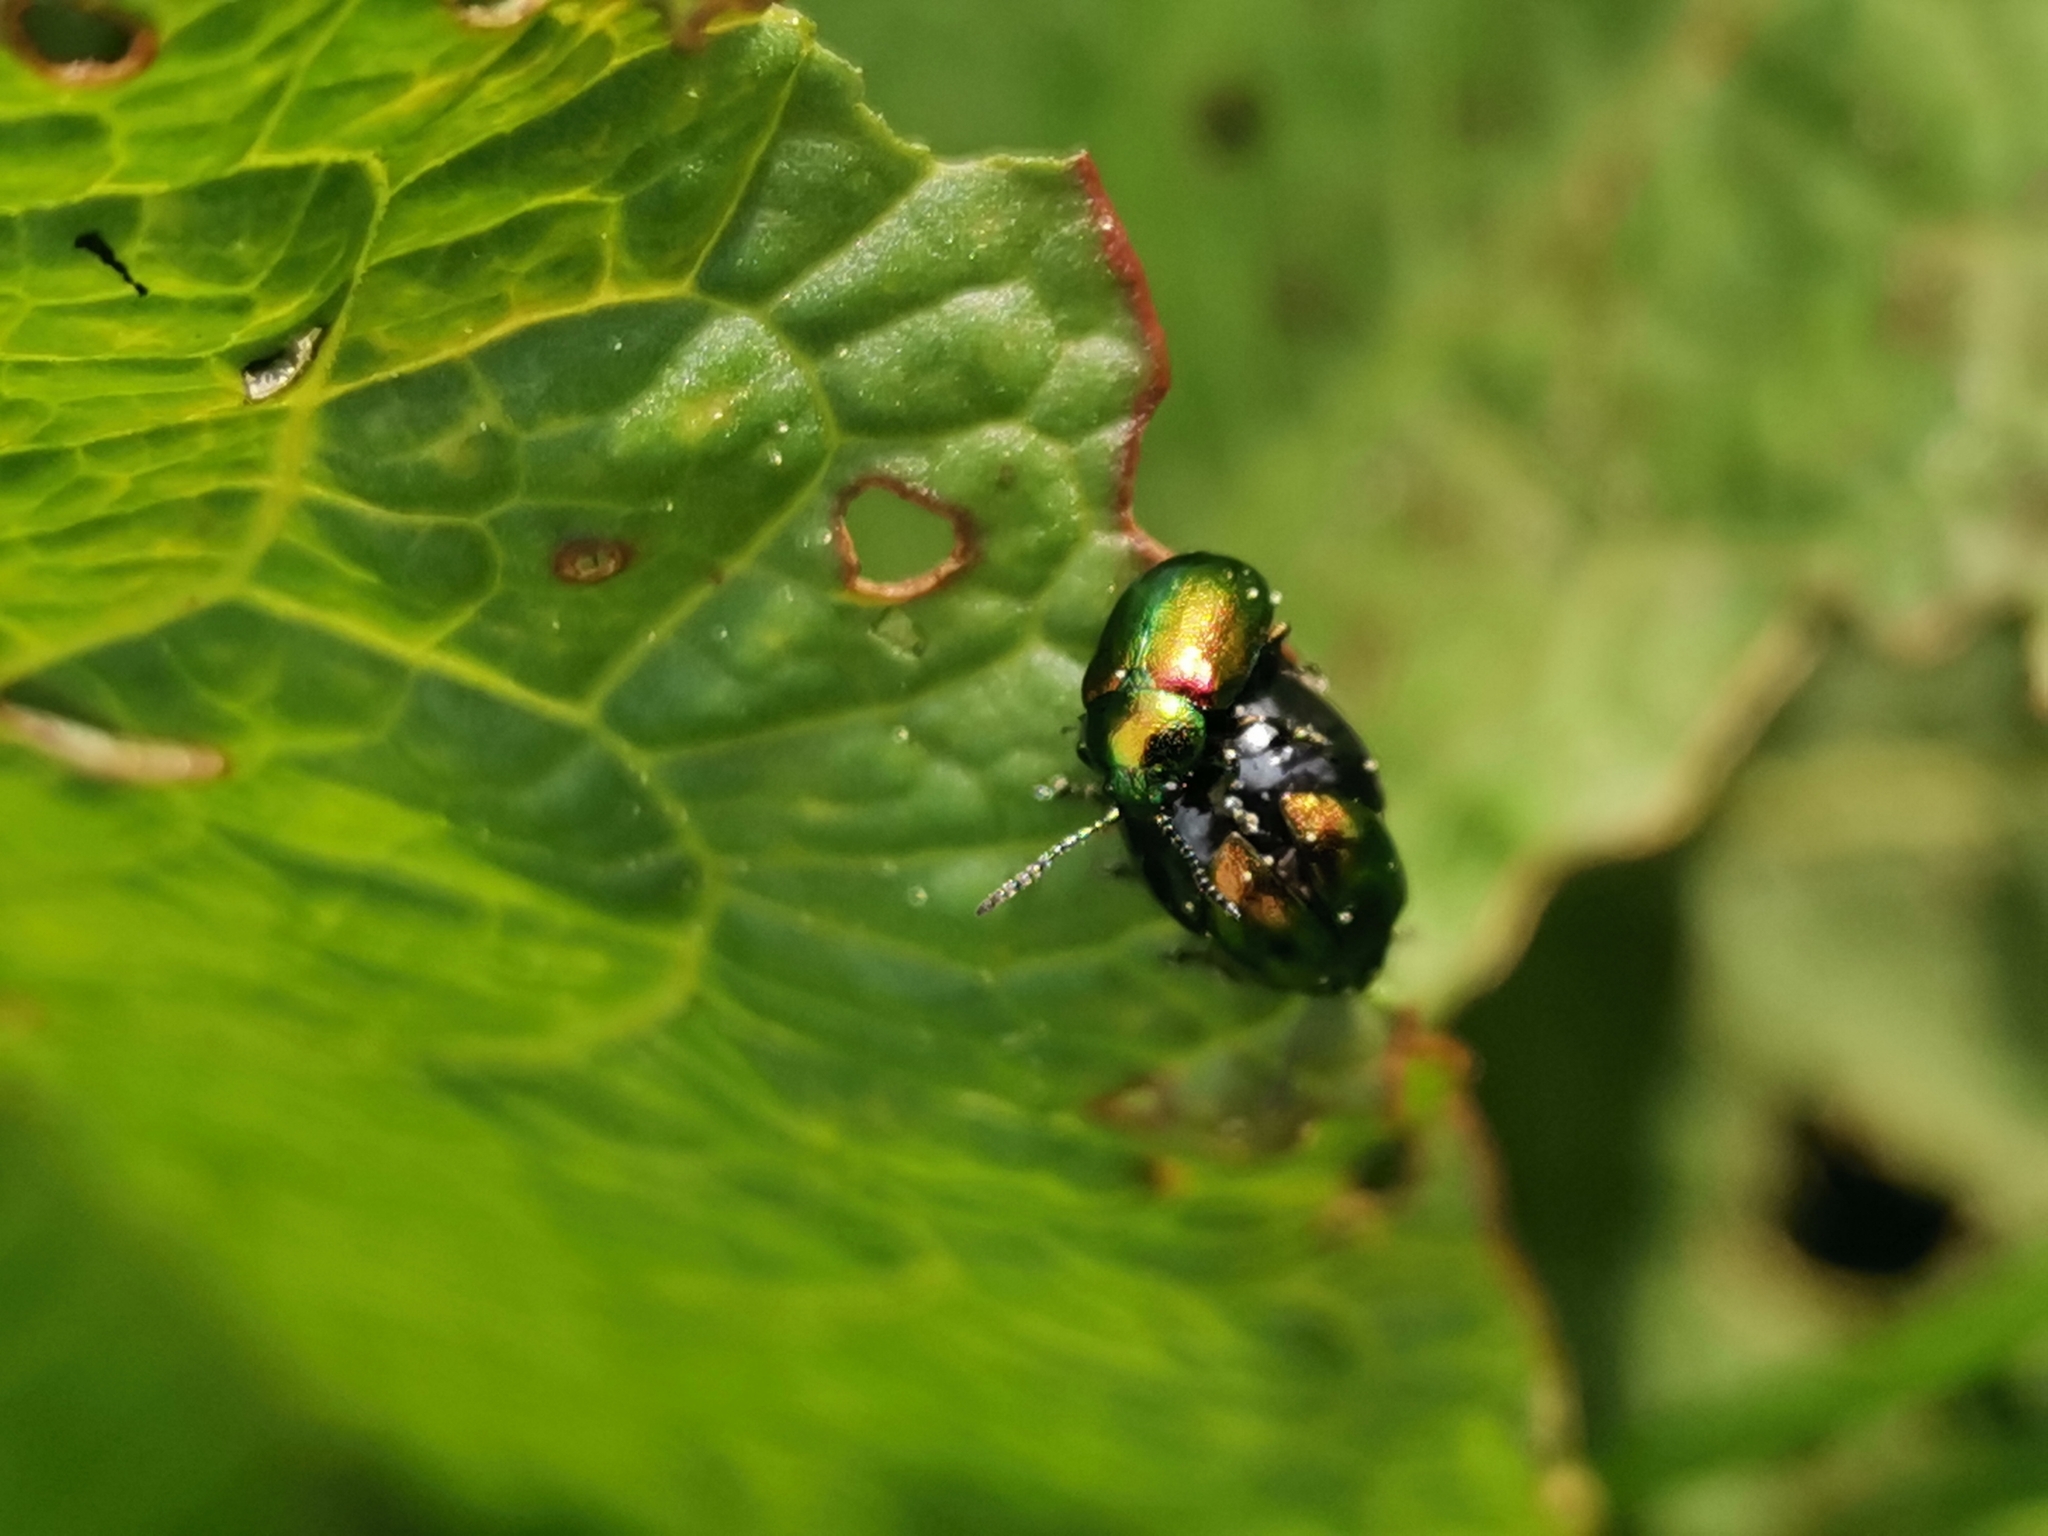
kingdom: Animalia
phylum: Arthropoda
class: Insecta
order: Coleoptera
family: Chrysomelidae
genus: Gastrophysa
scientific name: Gastrophysa viridula
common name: Green dock beetle
